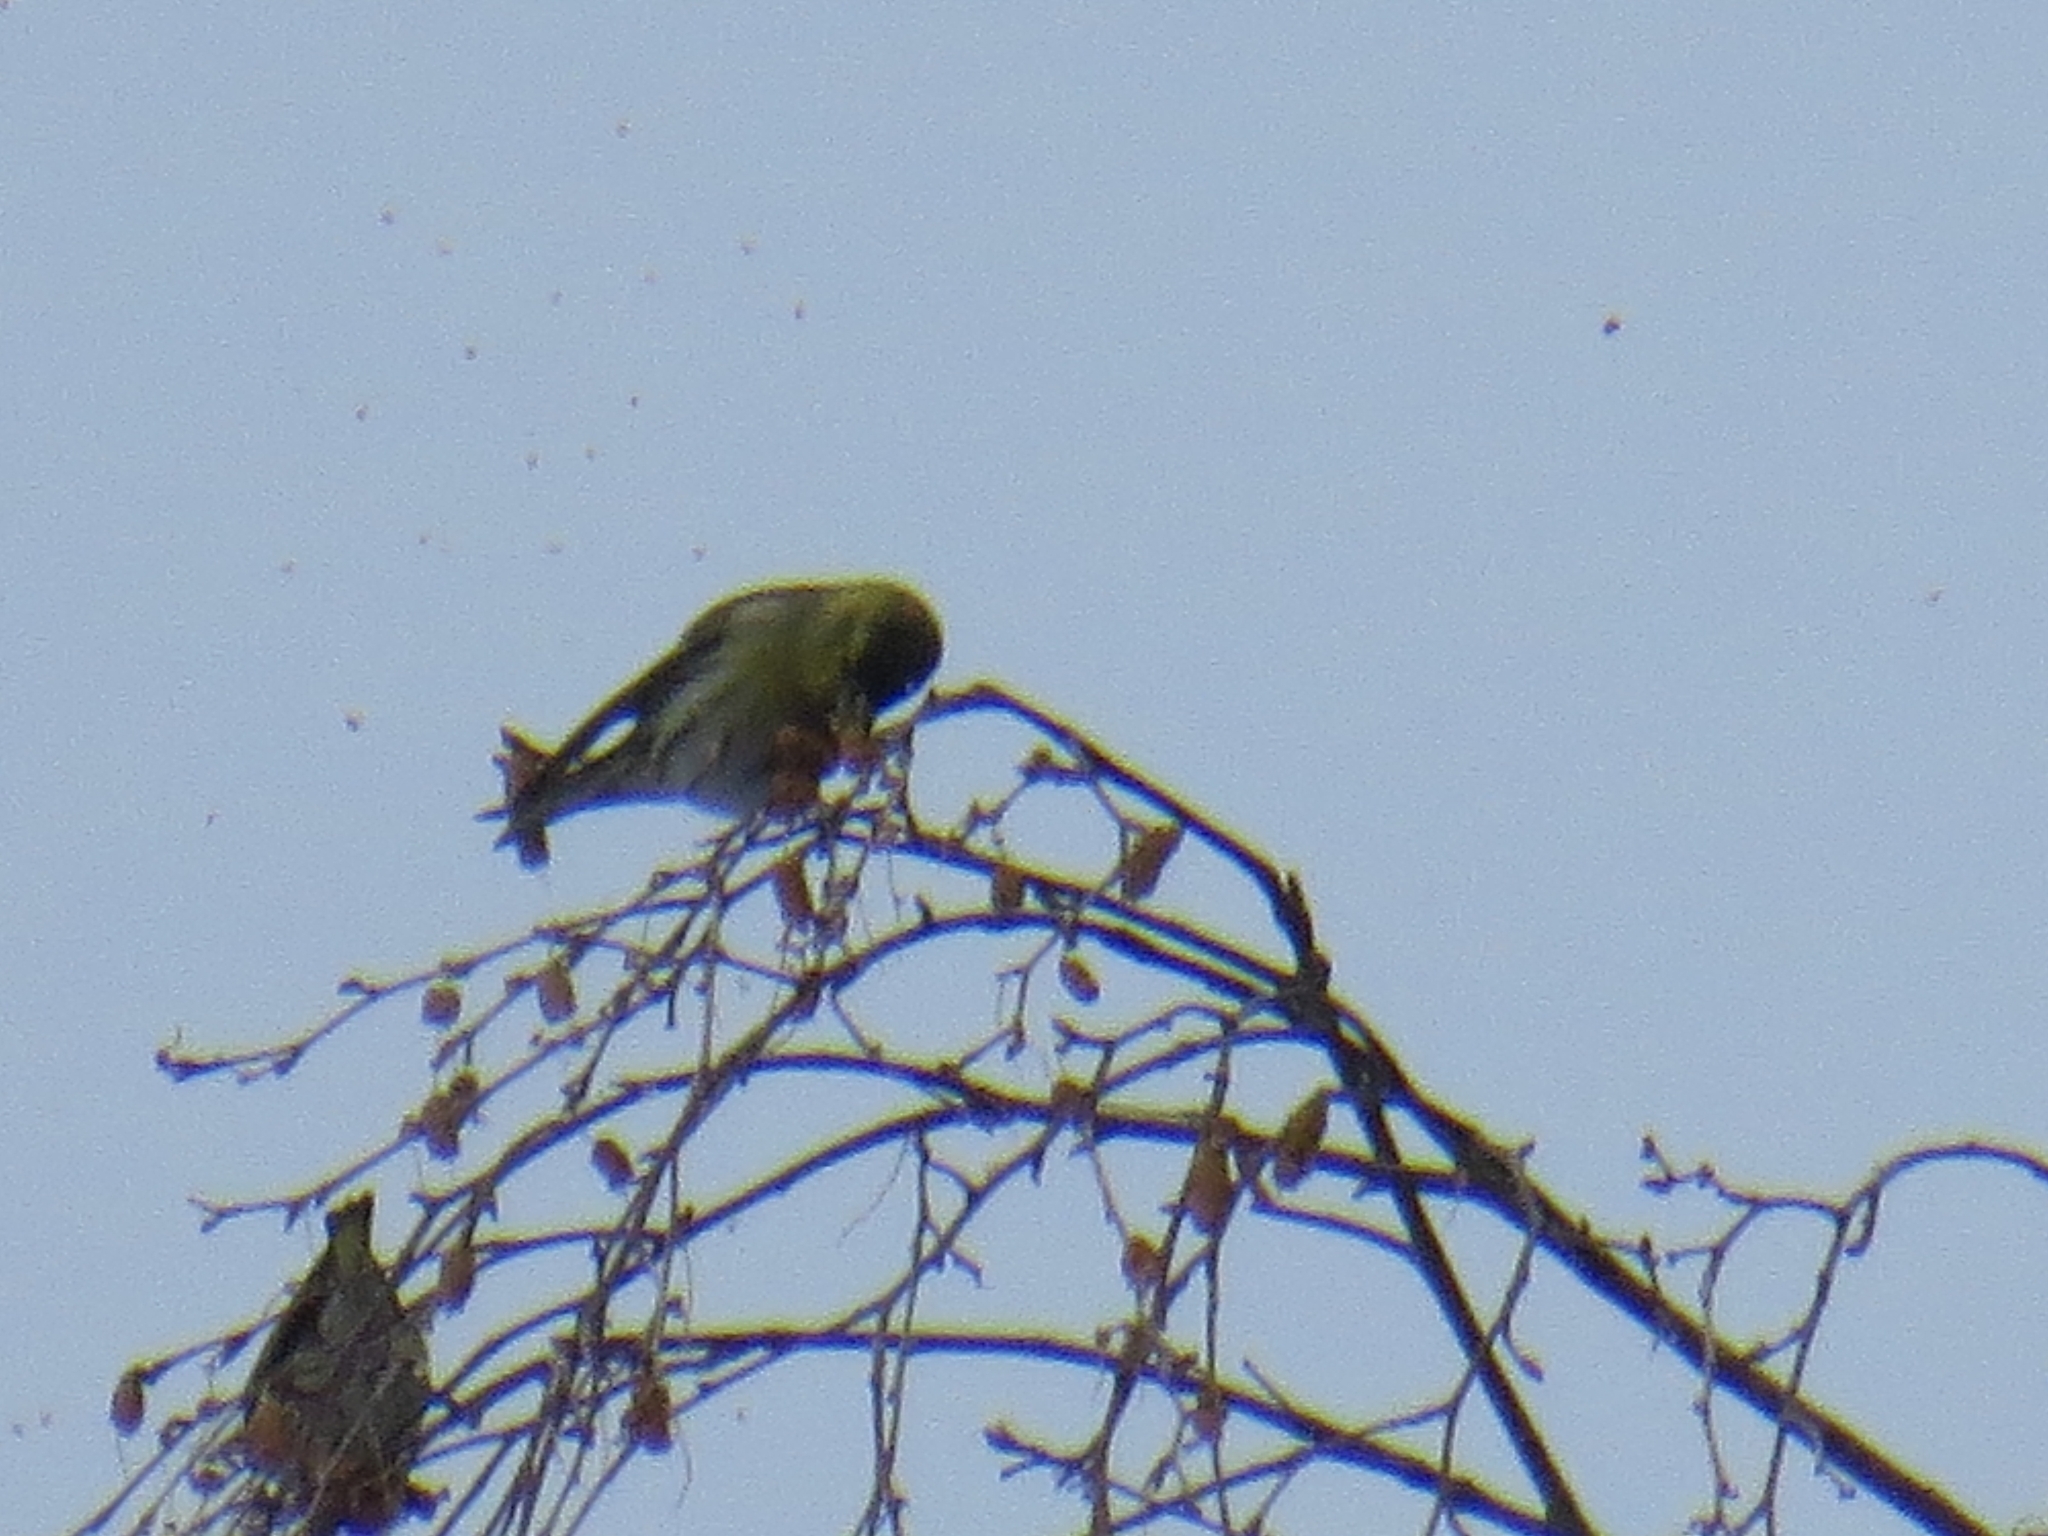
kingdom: Animalia
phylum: Chordata
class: Aves
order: Passeriformes
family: Fringillidae
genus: Spinus
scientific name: Spinus spinus
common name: Eurasian siskin
